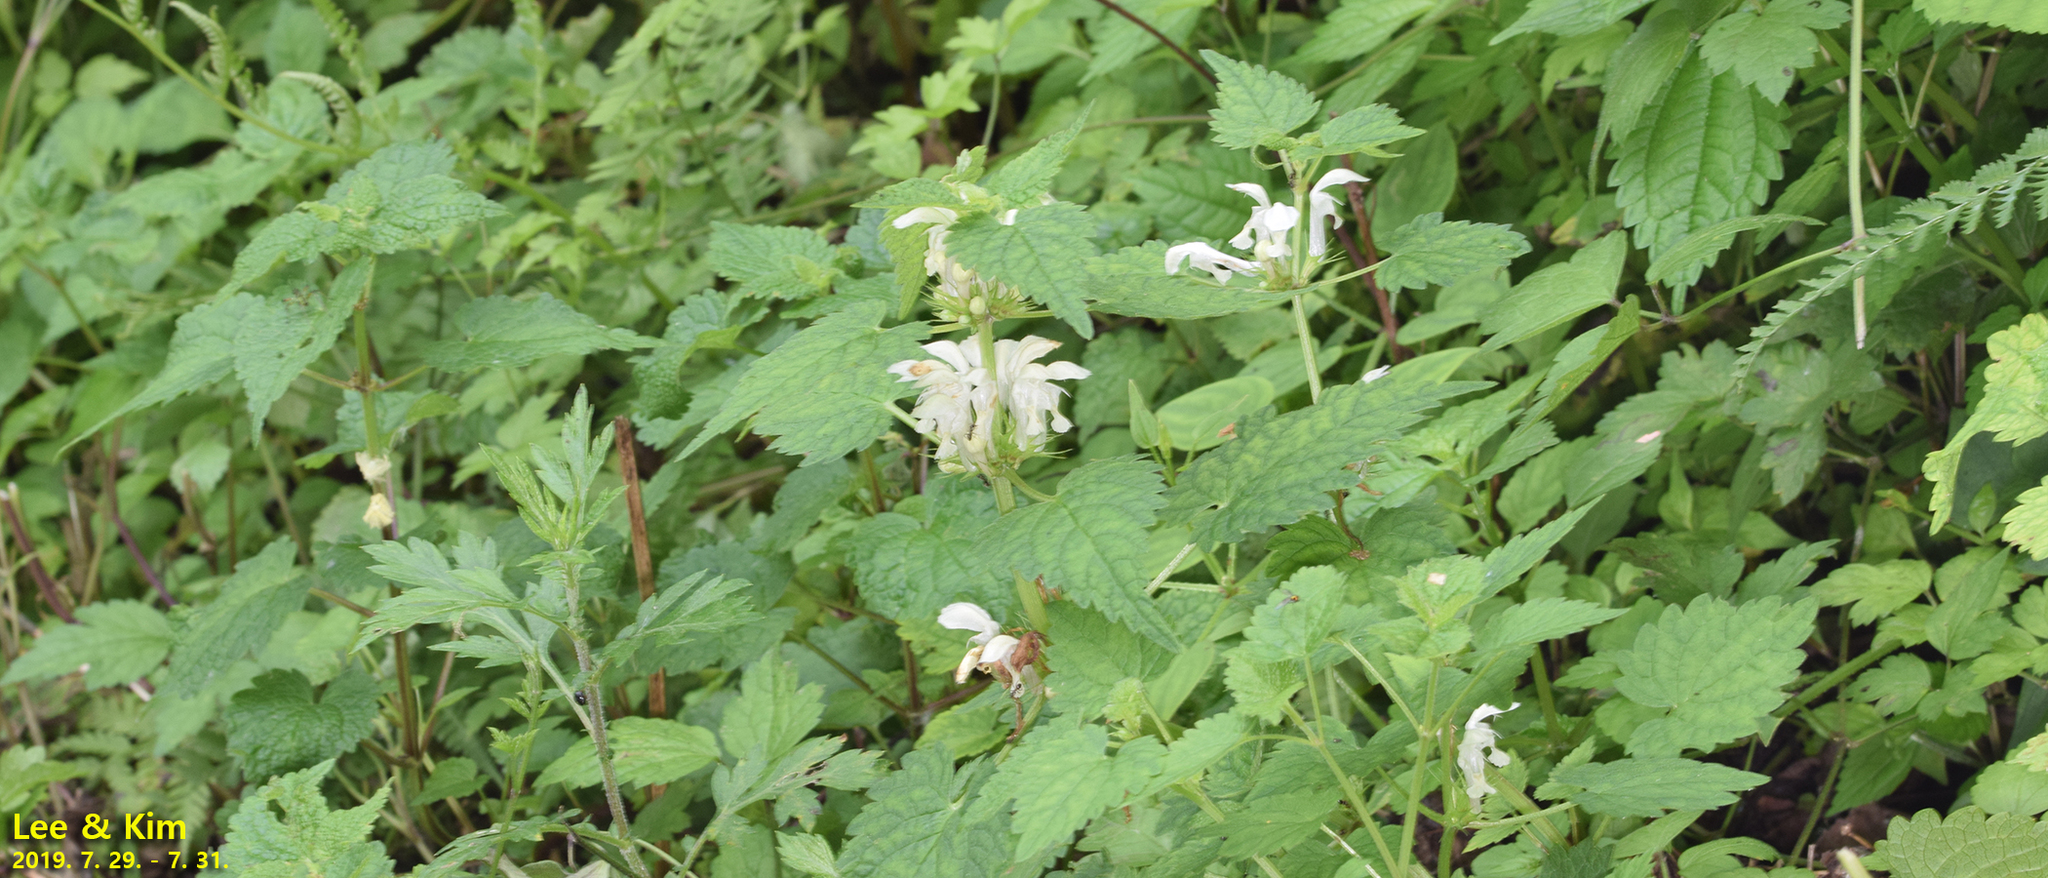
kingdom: Plantae
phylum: Tracheophyta
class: Magnoliopsida
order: Lamiales
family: Lamiaceae
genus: Lamium
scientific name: Lamium album
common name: White dead-nettle
